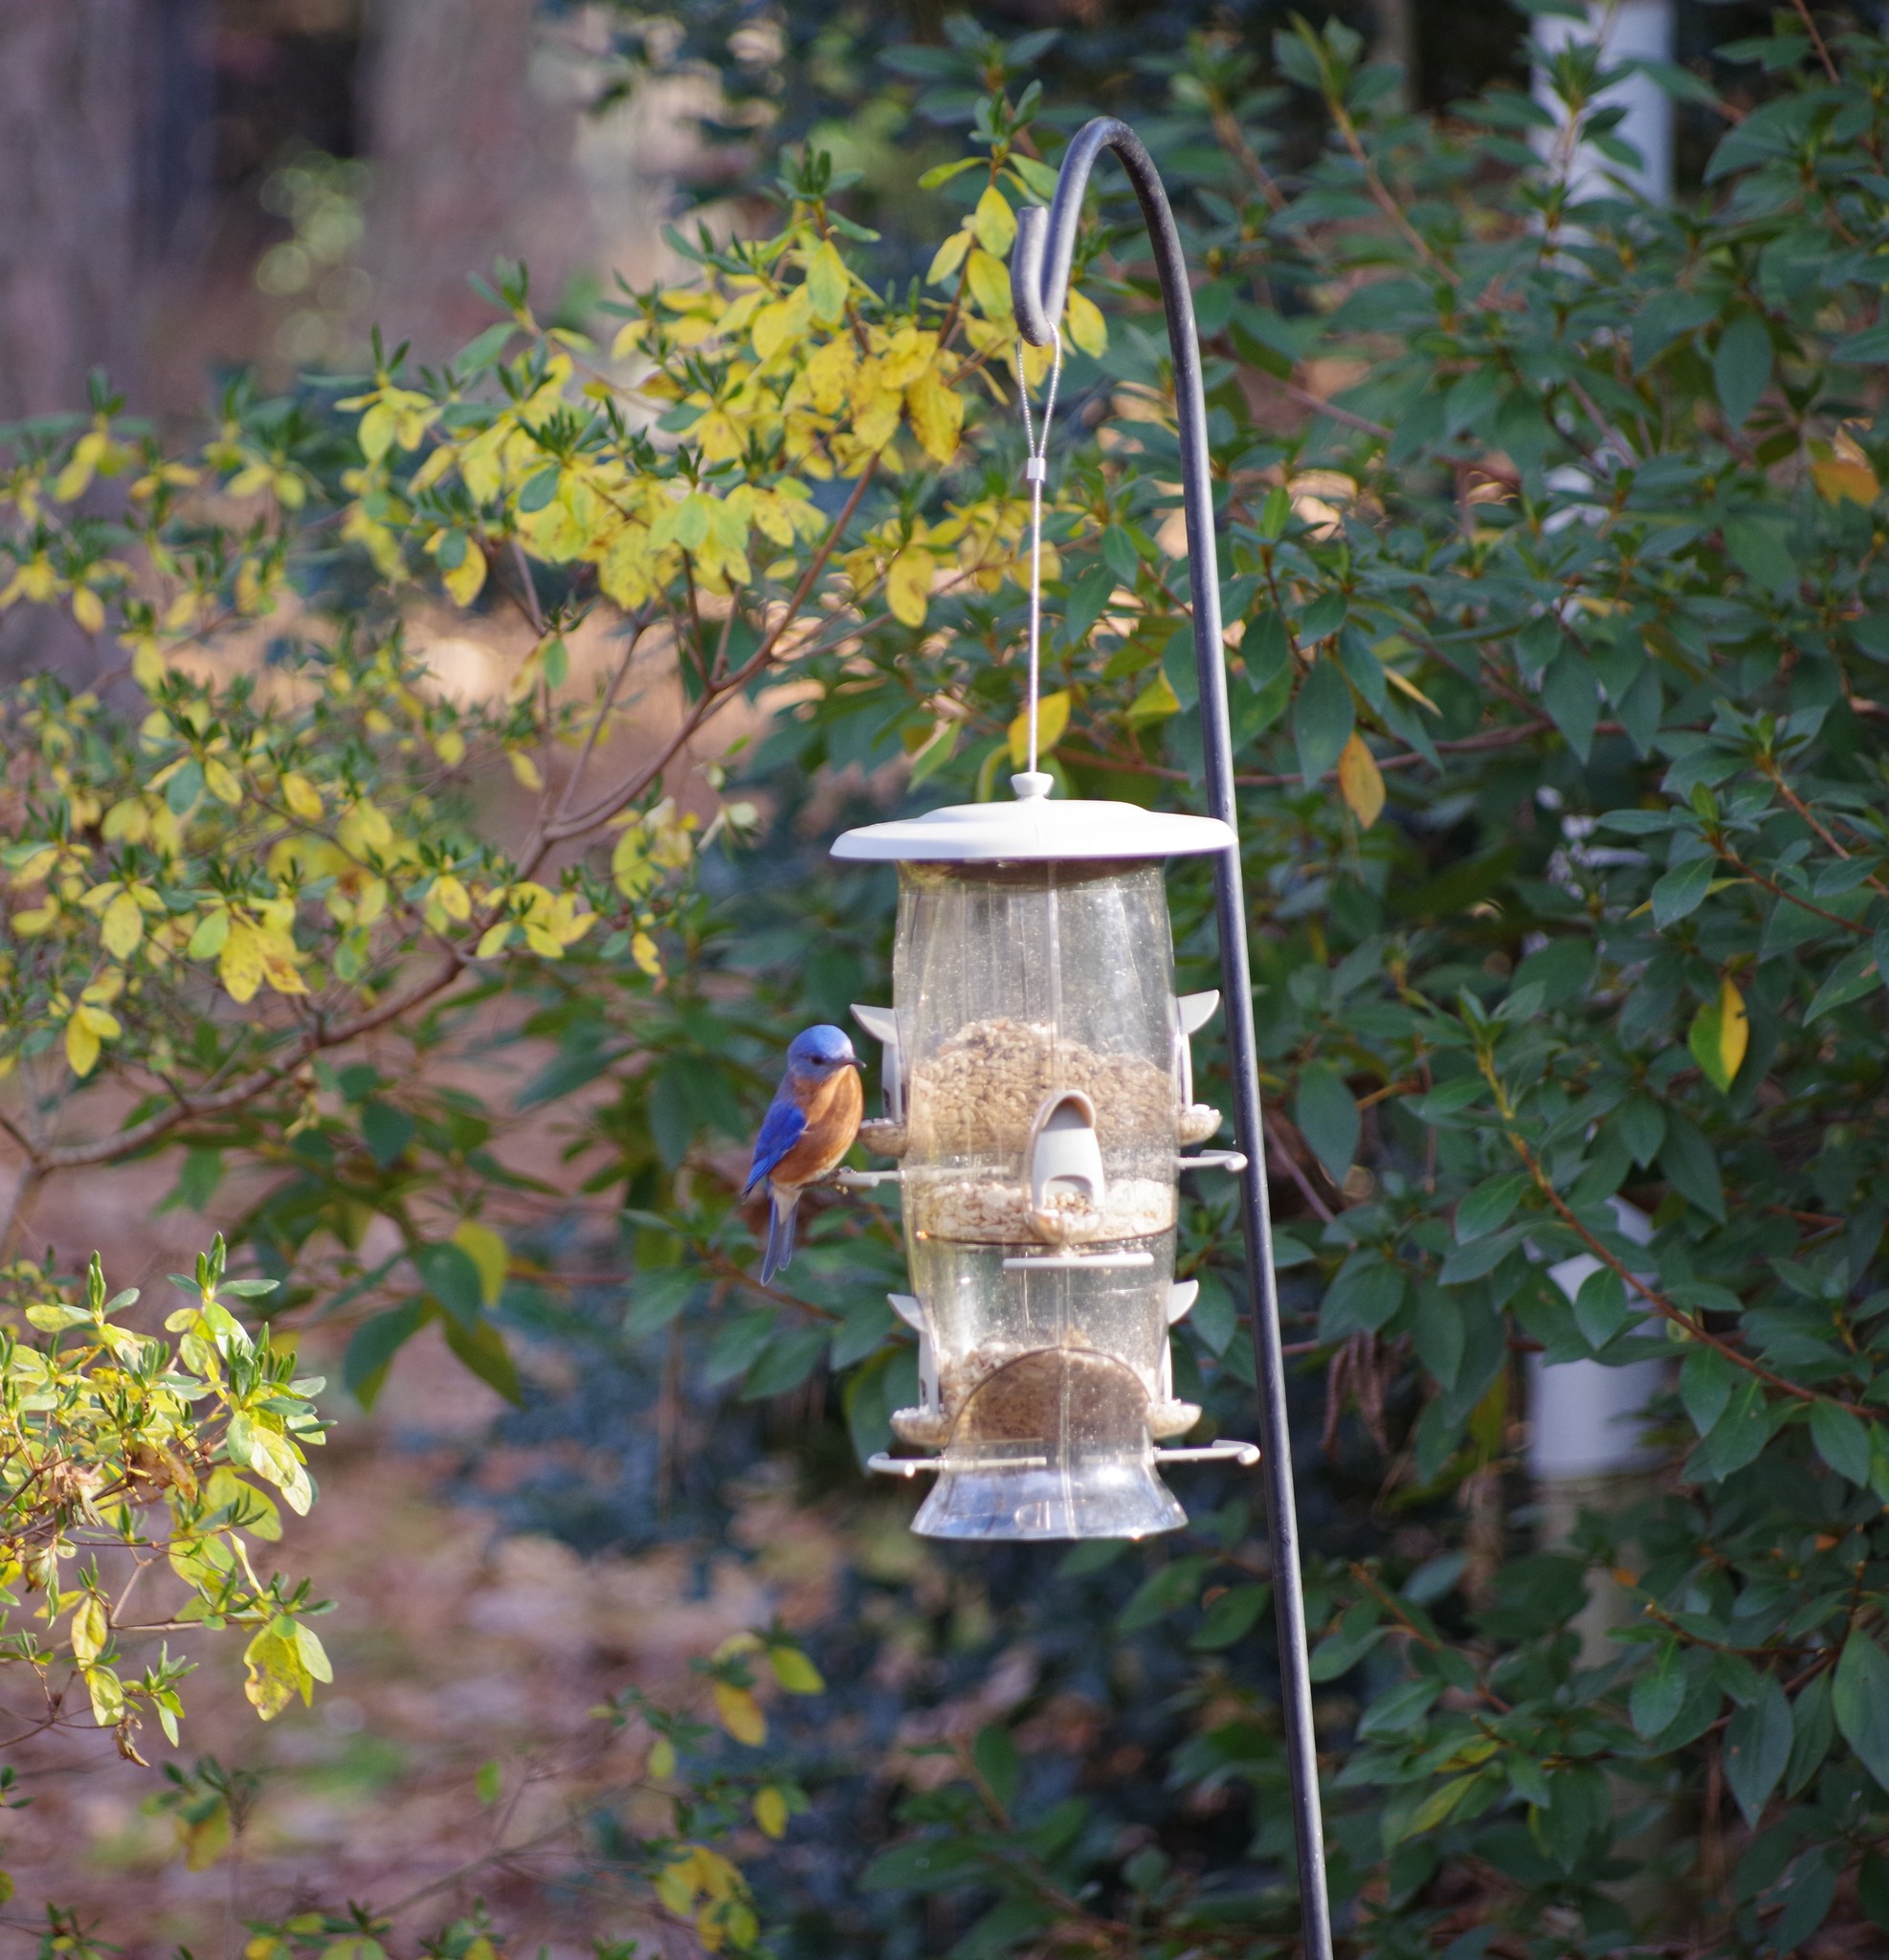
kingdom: Animalia
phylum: Chordata
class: Aves
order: Passeriformes
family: Turdidae
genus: Sialia
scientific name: Sialia sialis
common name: Eastern bluebird
